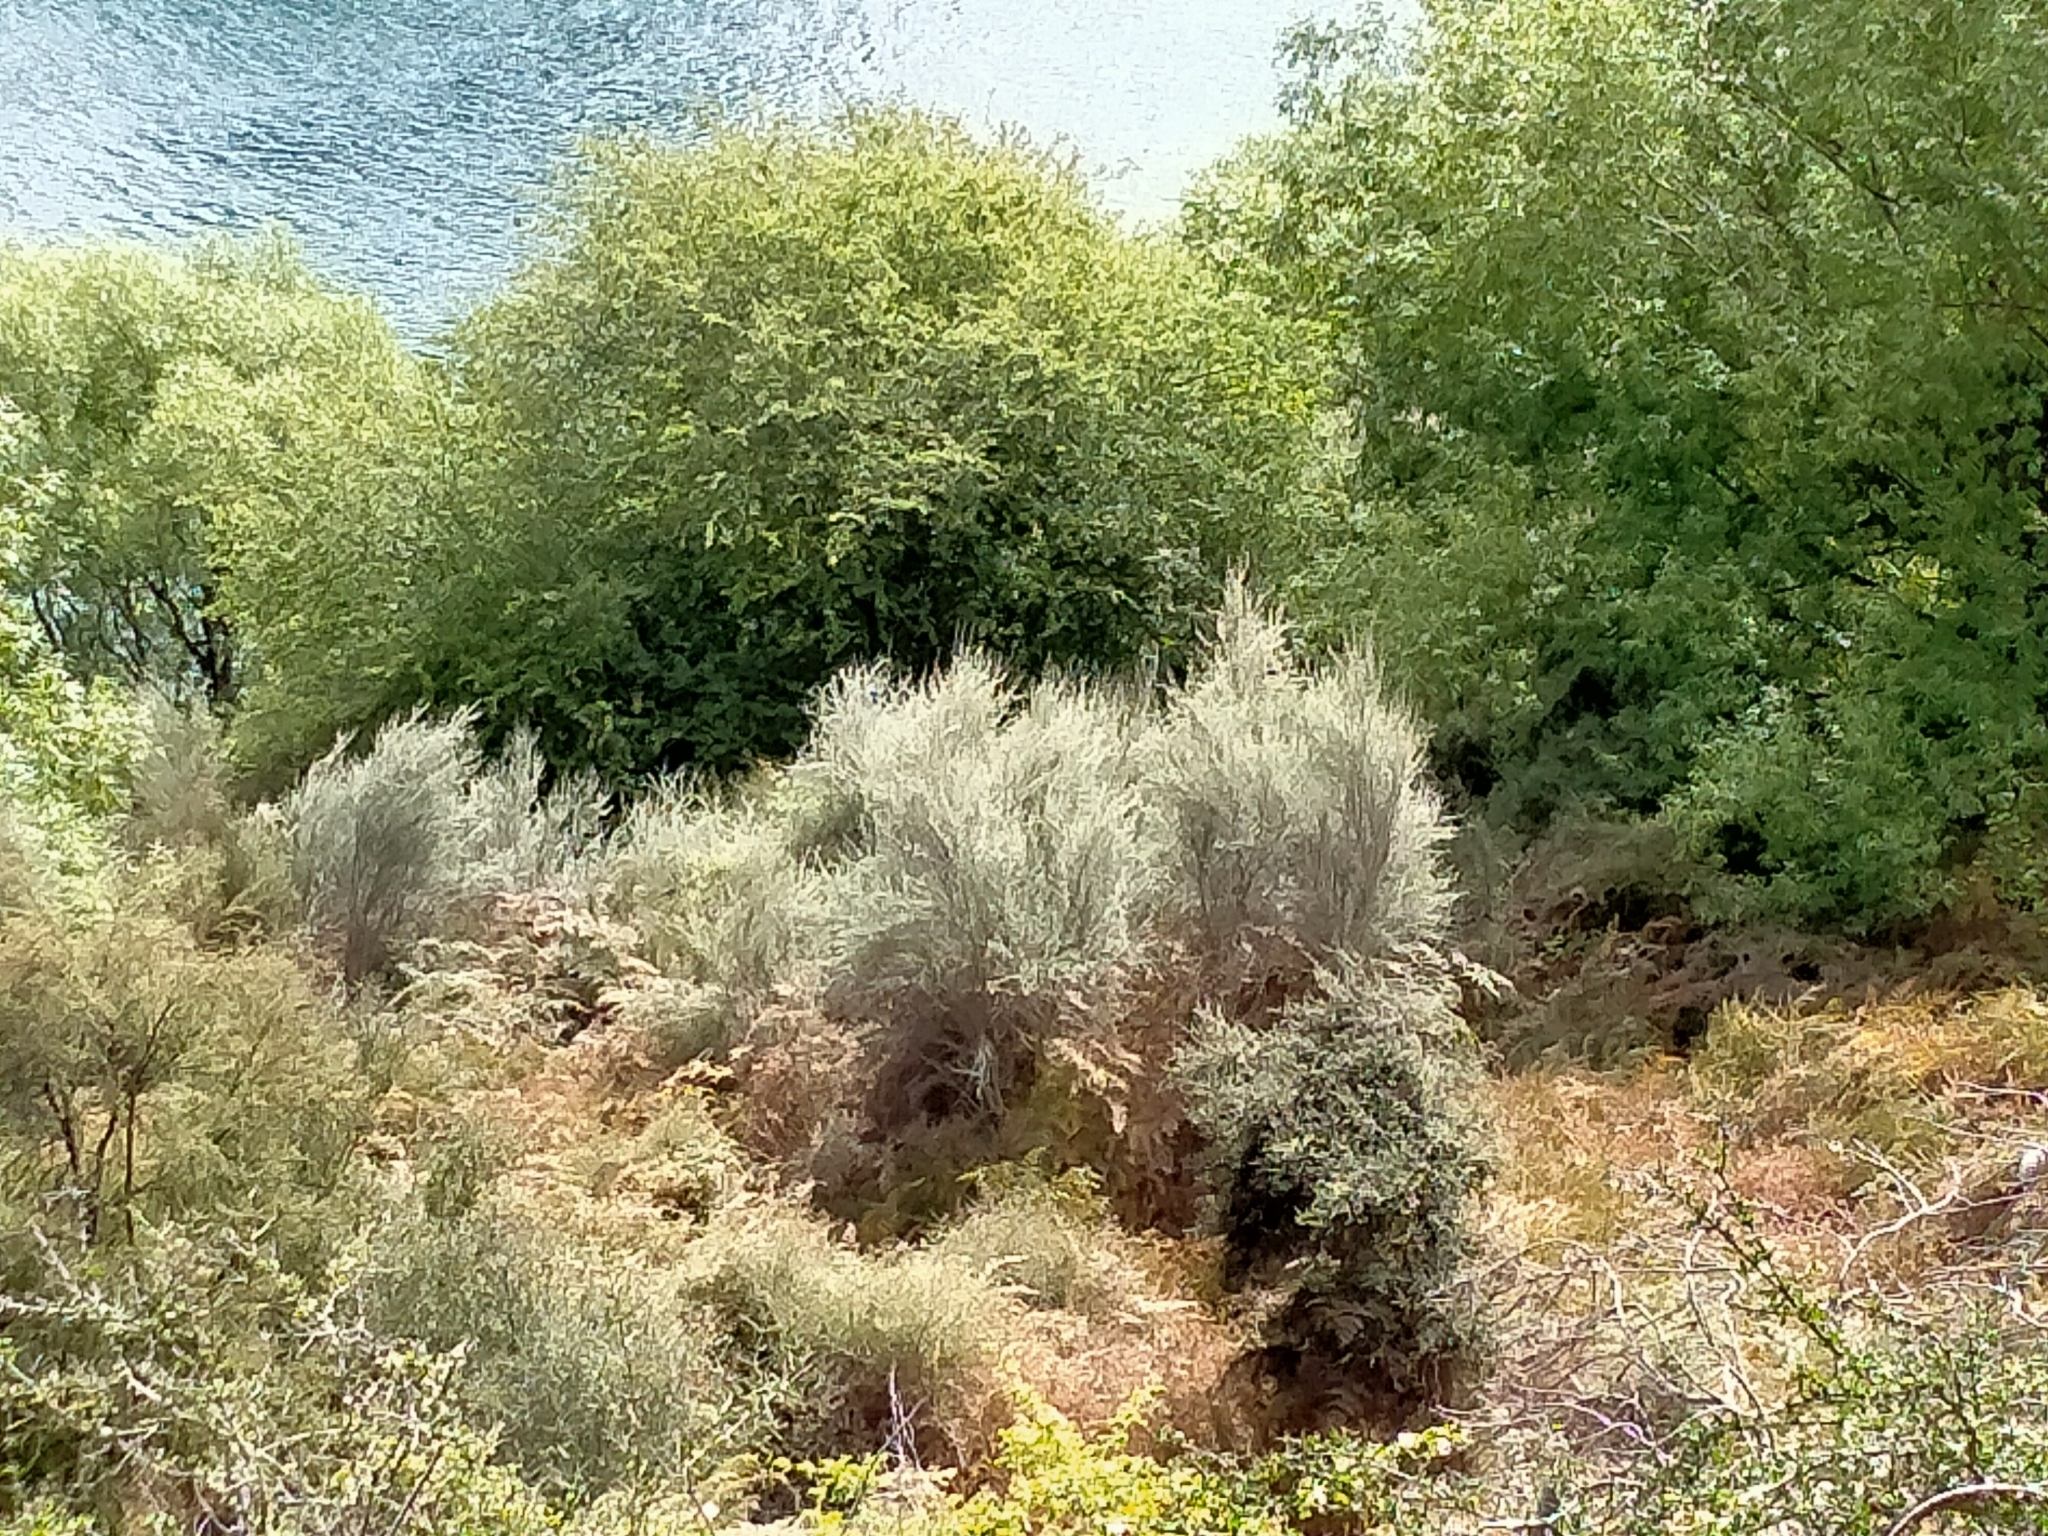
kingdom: Plantae
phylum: Tracheophyta
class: Magnoliopsida
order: Asterales
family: Asteraceae
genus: Olearia
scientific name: Olearia lineata
